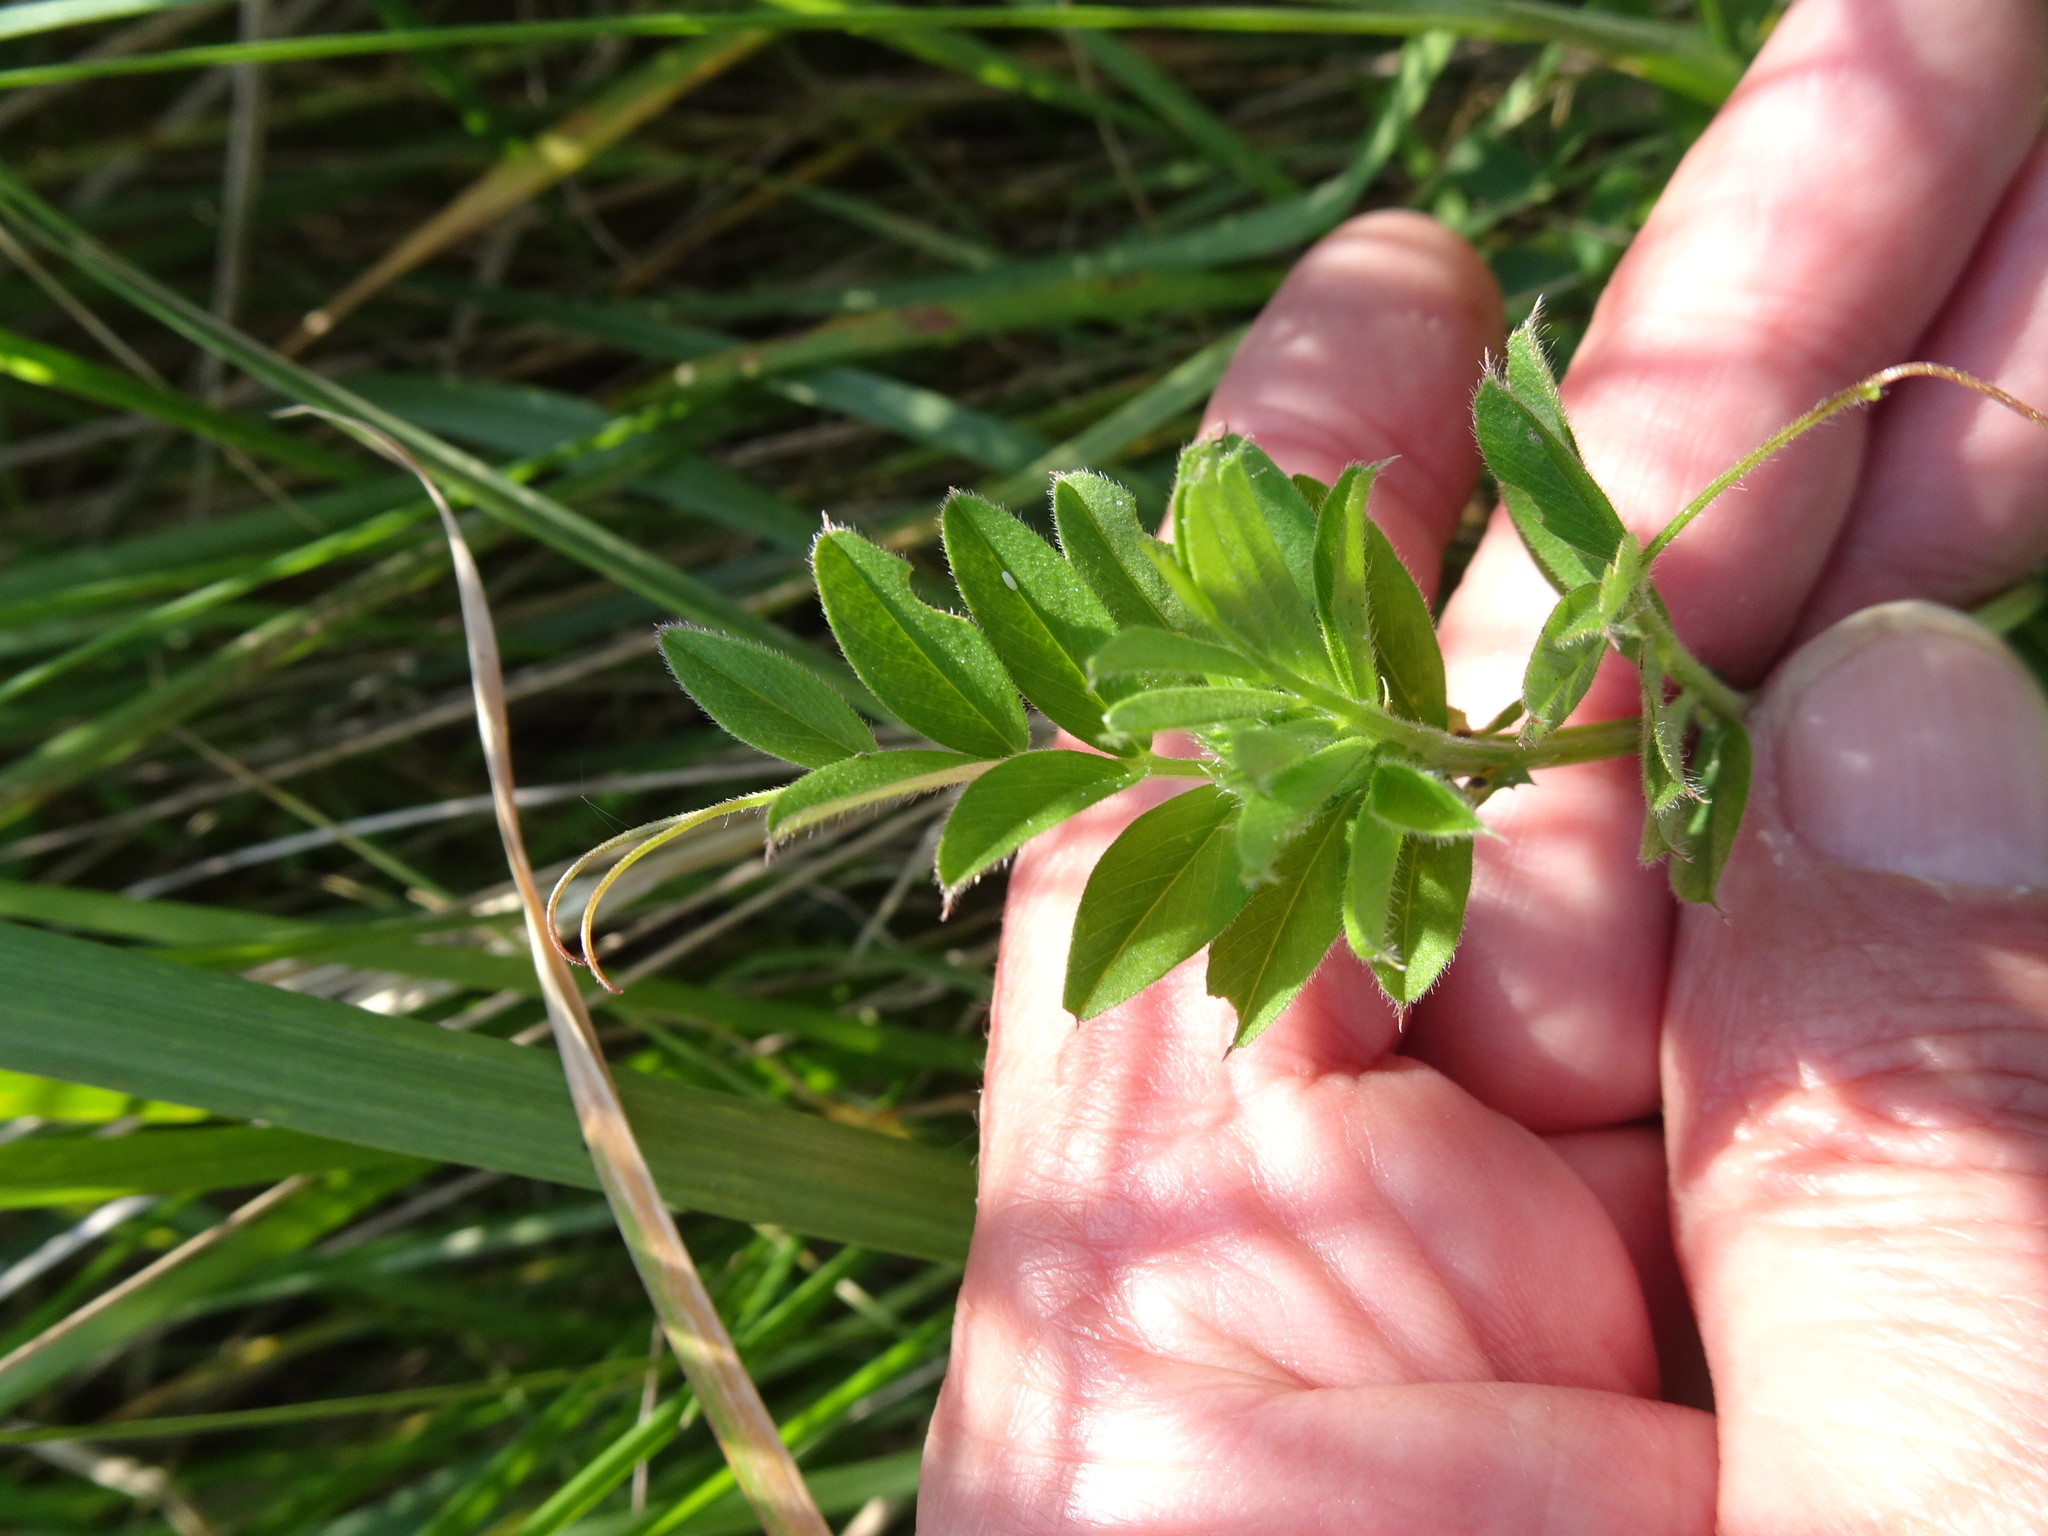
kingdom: Plantae
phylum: Tracheophyta
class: Magnoliopsida
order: Fabales
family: Fabaceae
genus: Vicia
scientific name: Vicia sativa
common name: Garden vetch
